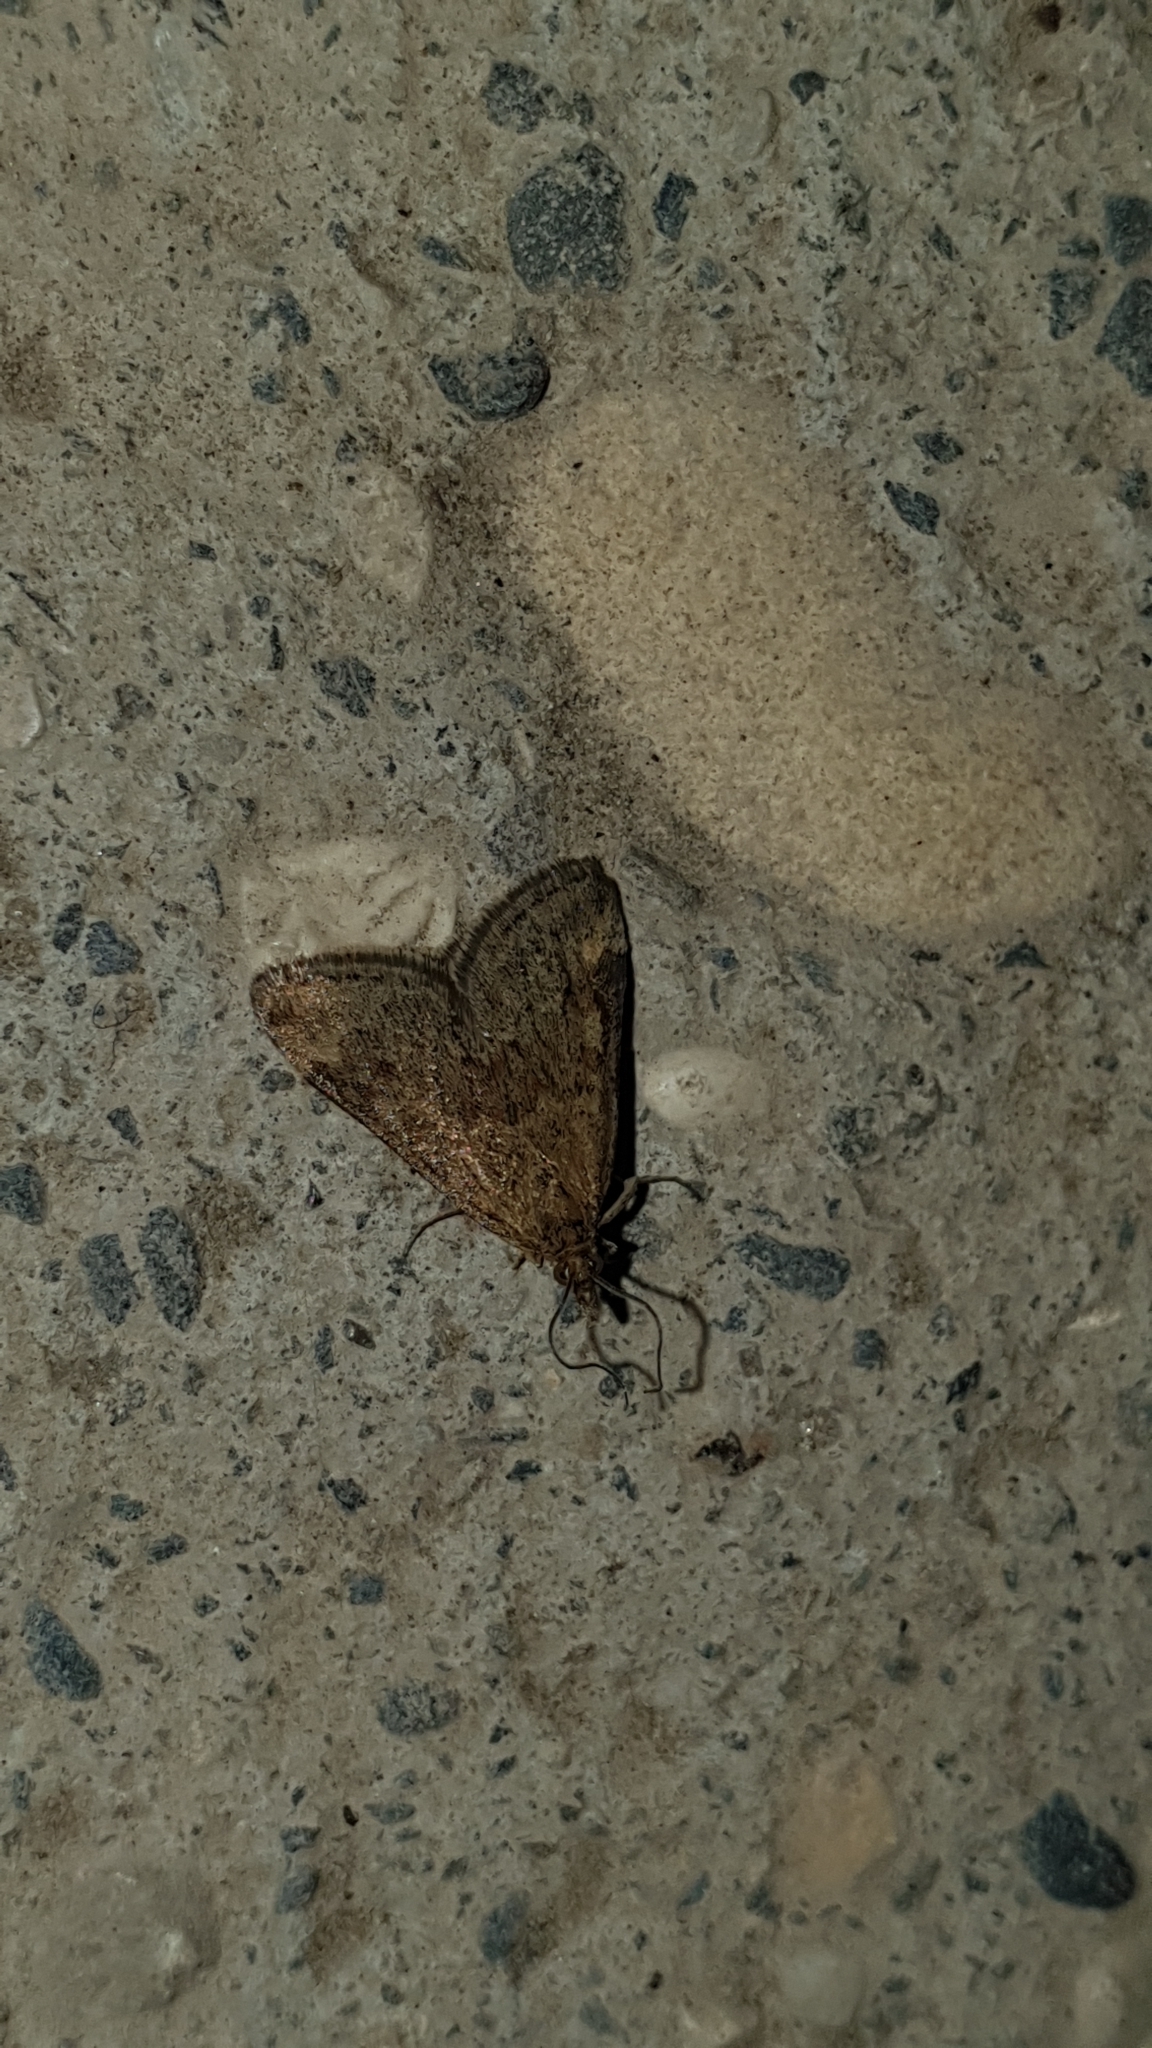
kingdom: Animalia
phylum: Arthropoda
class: Insecta
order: Lepidoptera
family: Crambidae
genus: Pyrausta
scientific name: Pyrausta despicata
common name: Straw-barred pearl
